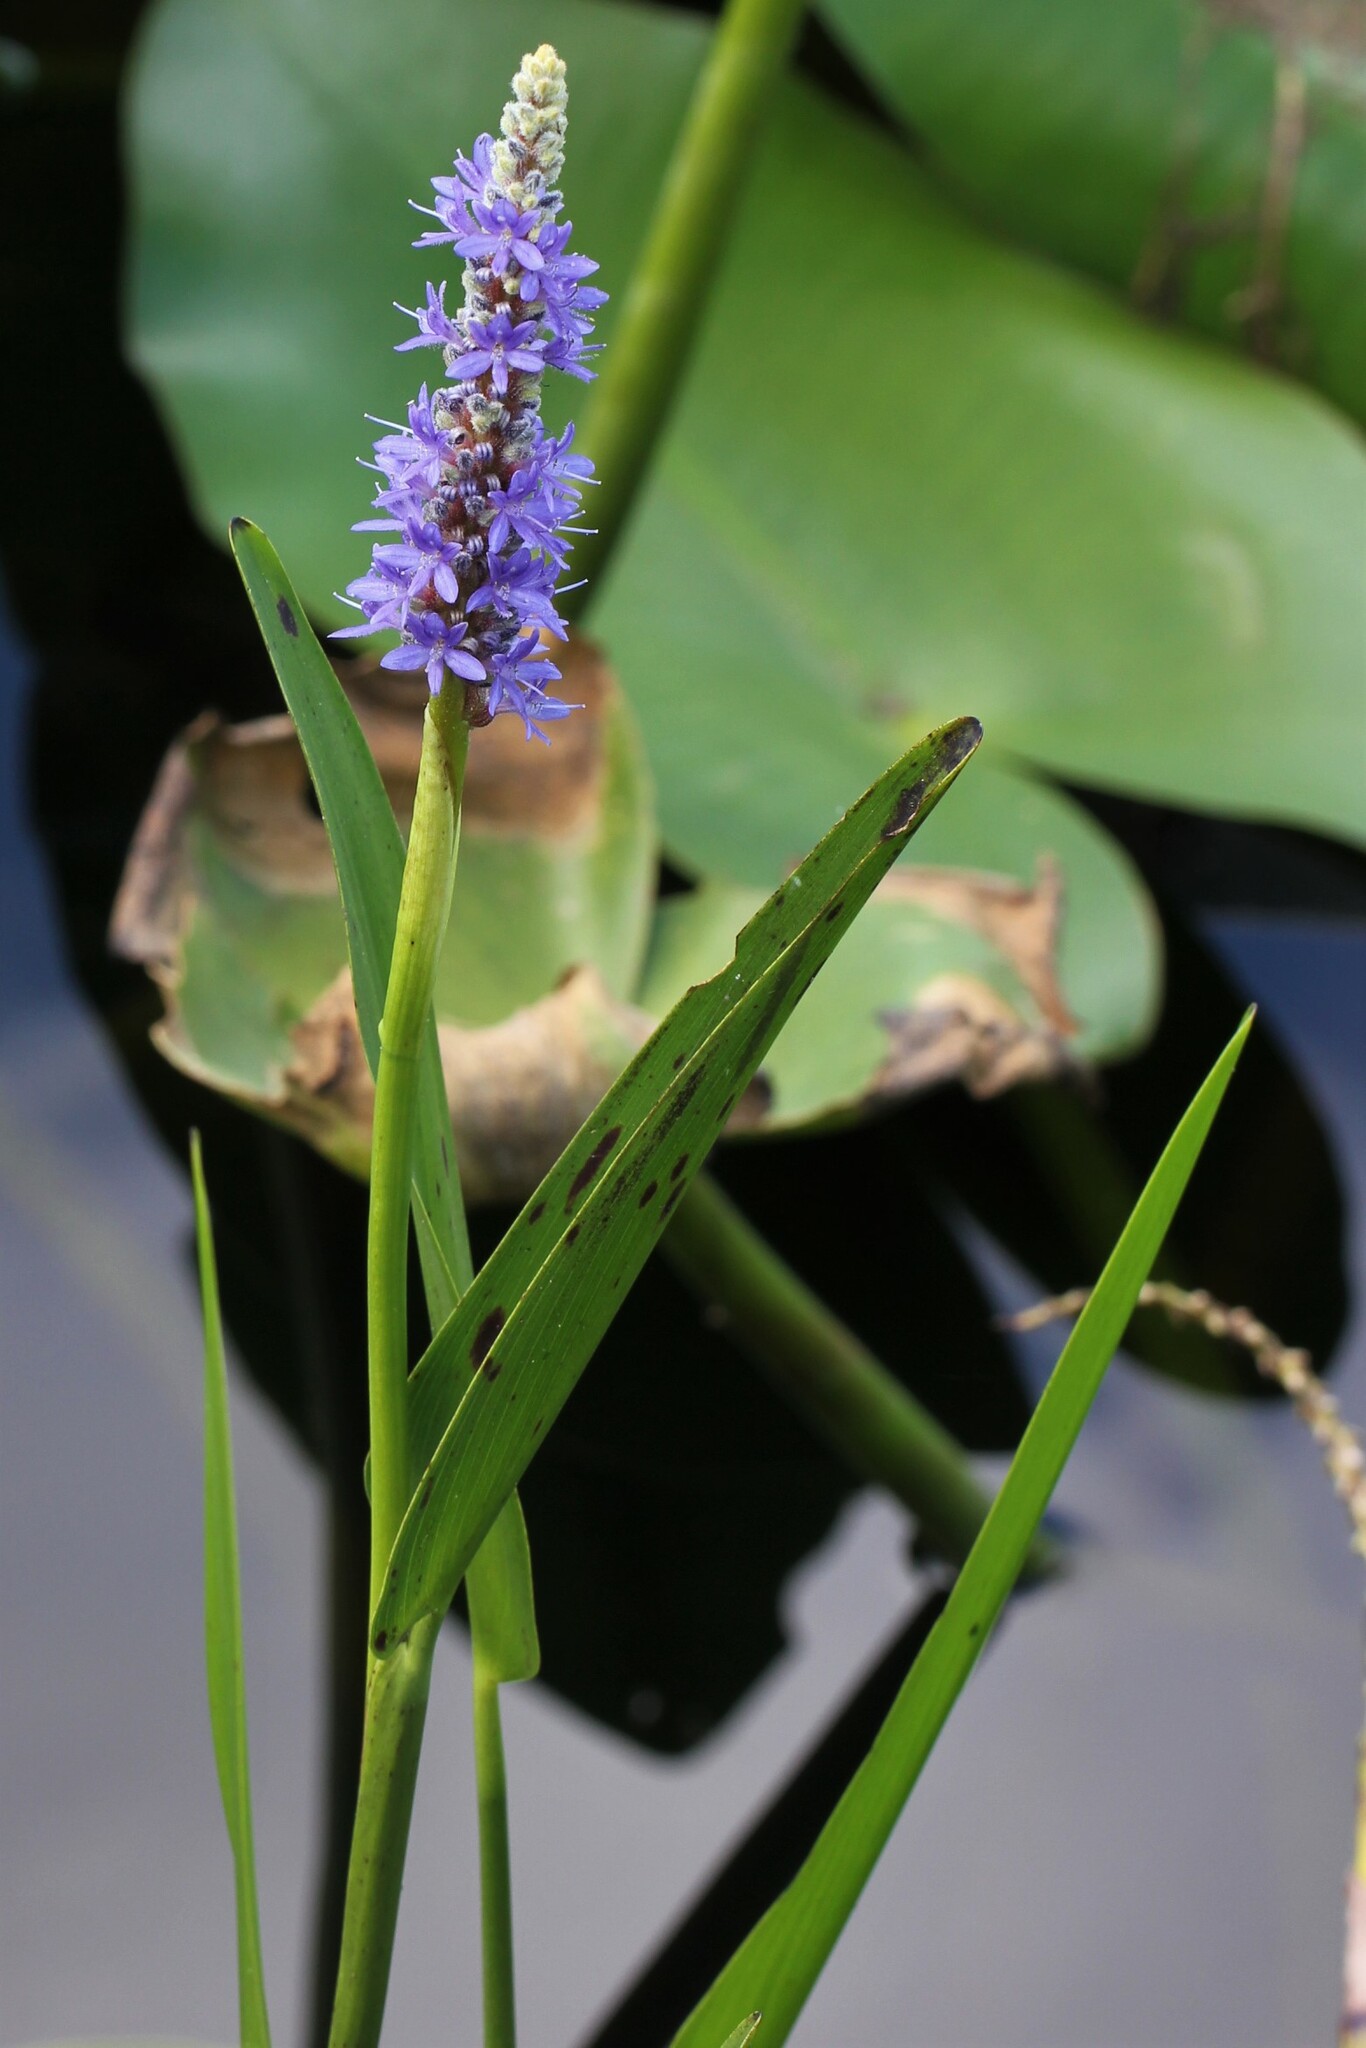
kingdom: Plantae
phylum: Tracheophyta
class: Liliopsida
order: Commelinales
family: Pontederiaceae
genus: Pontederia
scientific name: Pontederia cordata
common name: Pickerelweed
